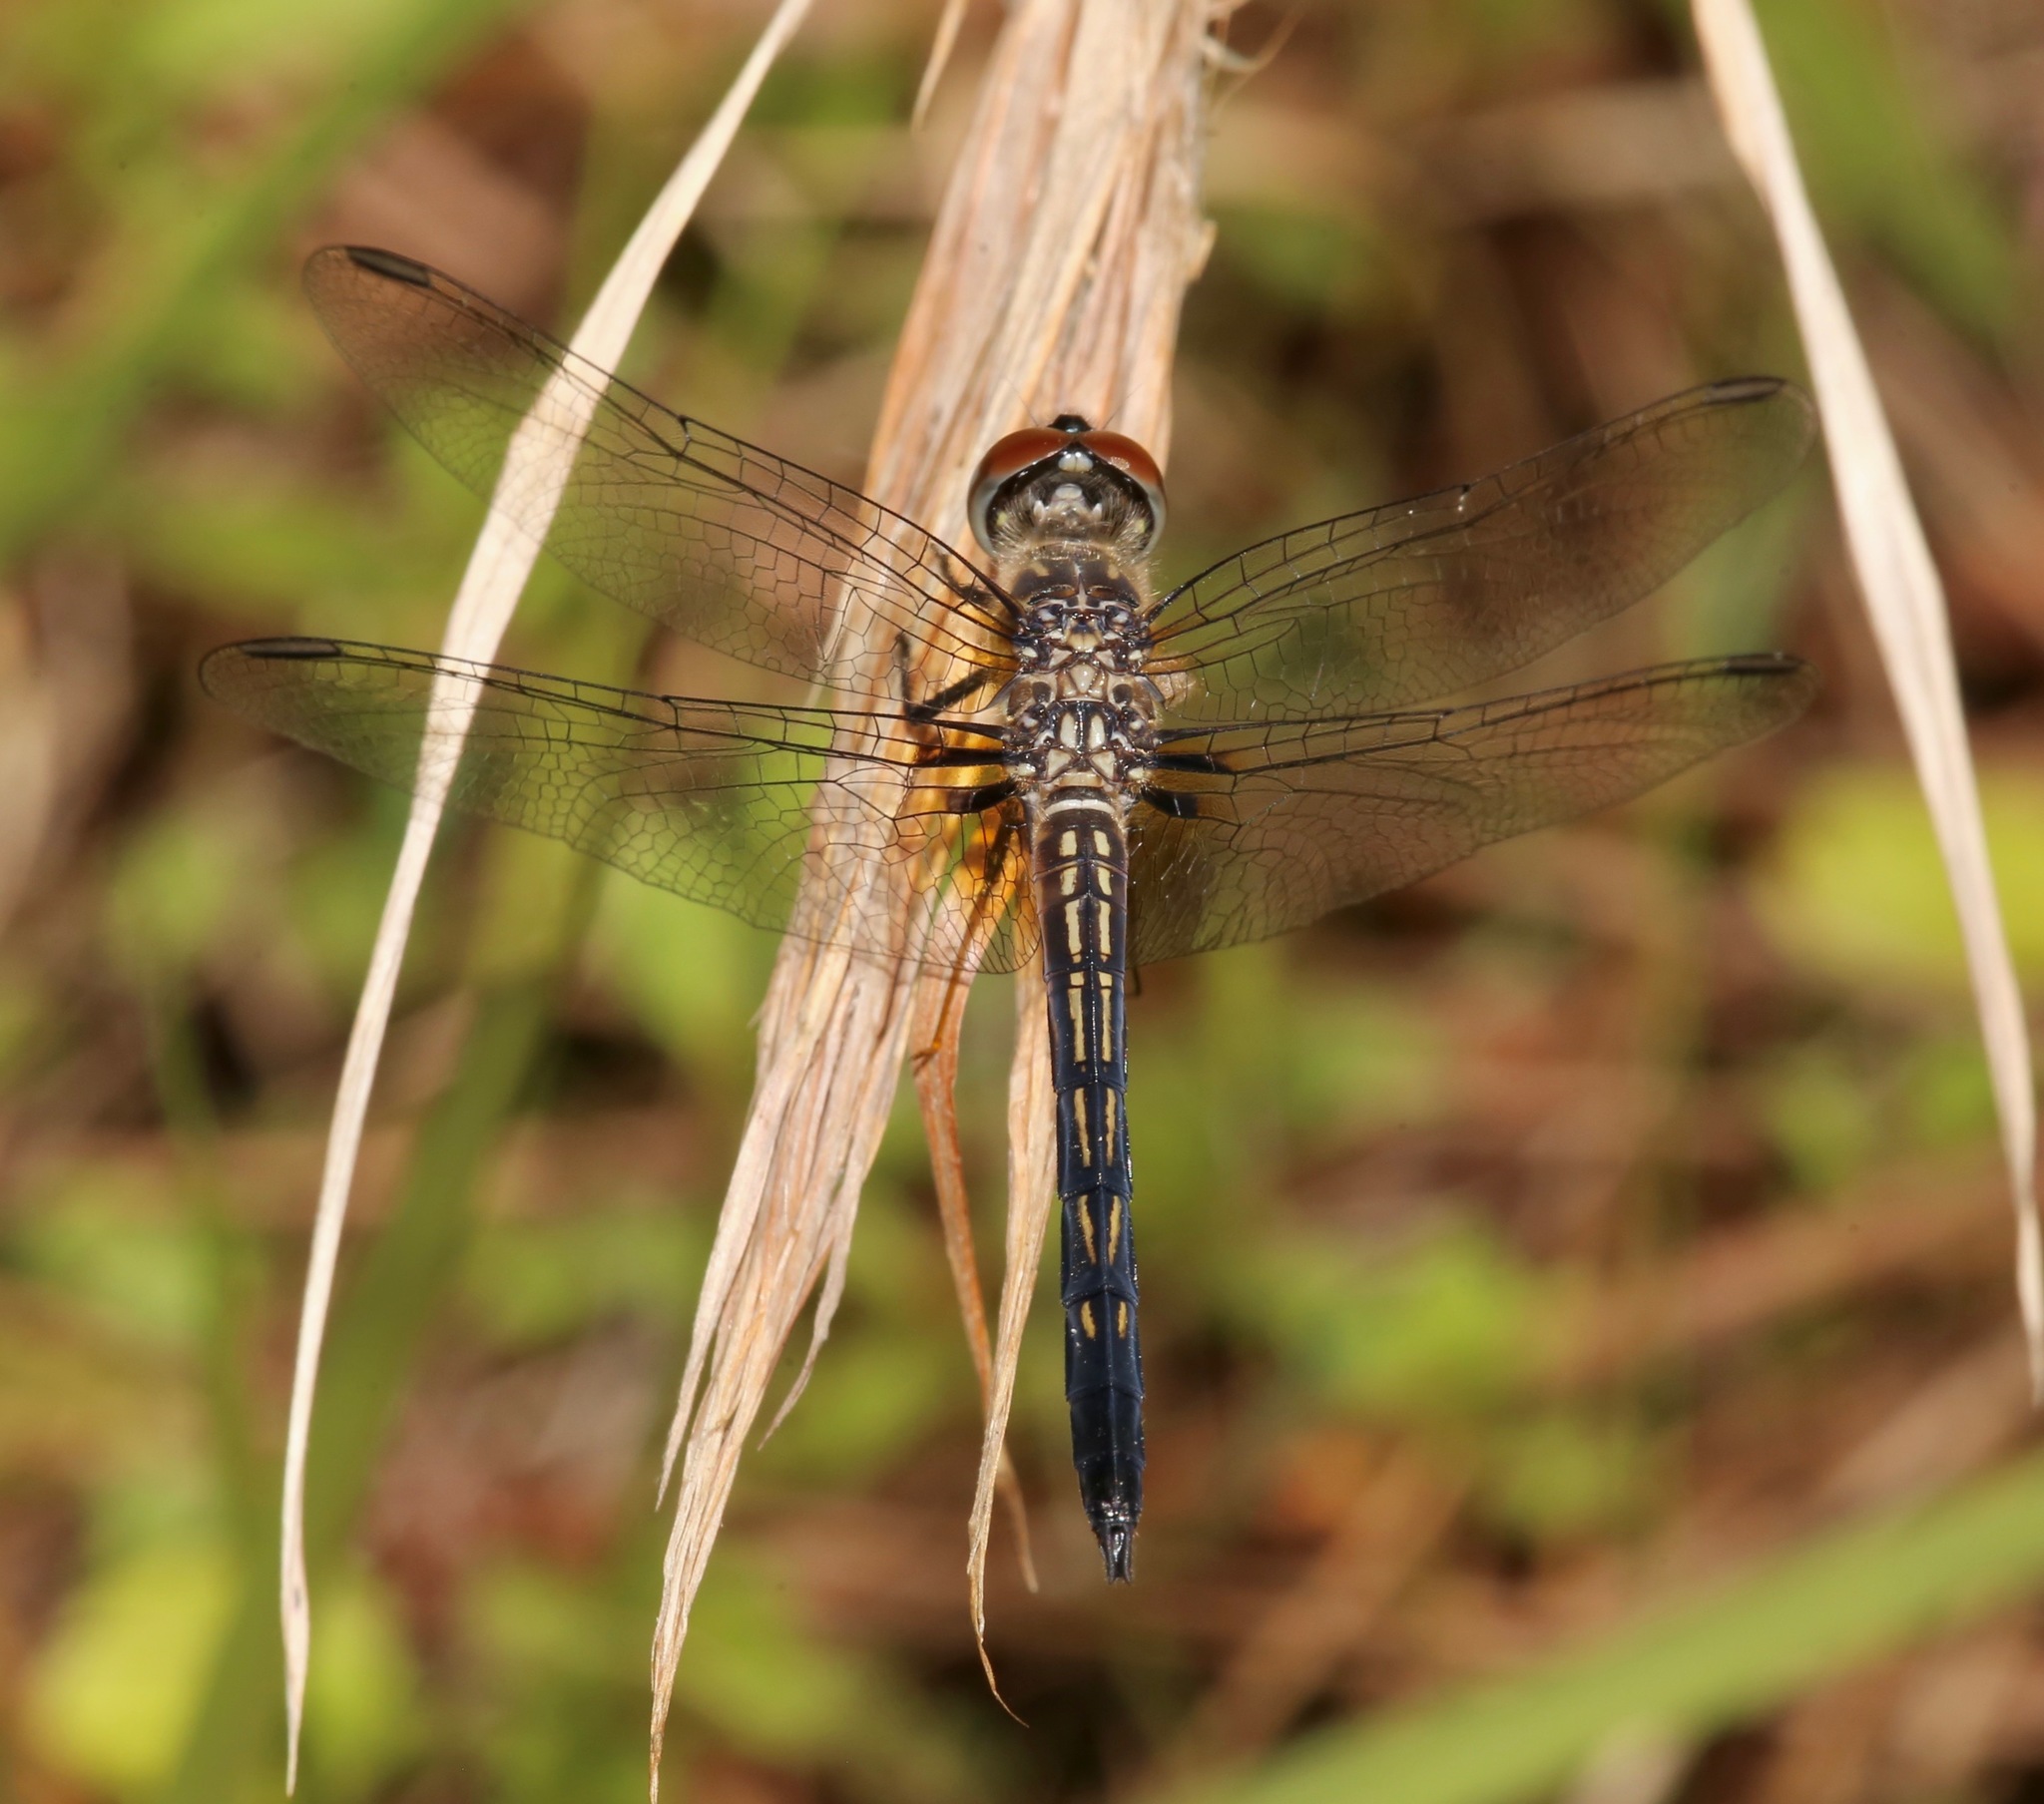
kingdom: Animalia
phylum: Arthropoda
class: Insecta
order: Odonata
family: Libellulidae
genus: Pachydiplax
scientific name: Pachydiplax longipennis
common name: Blue dasher
